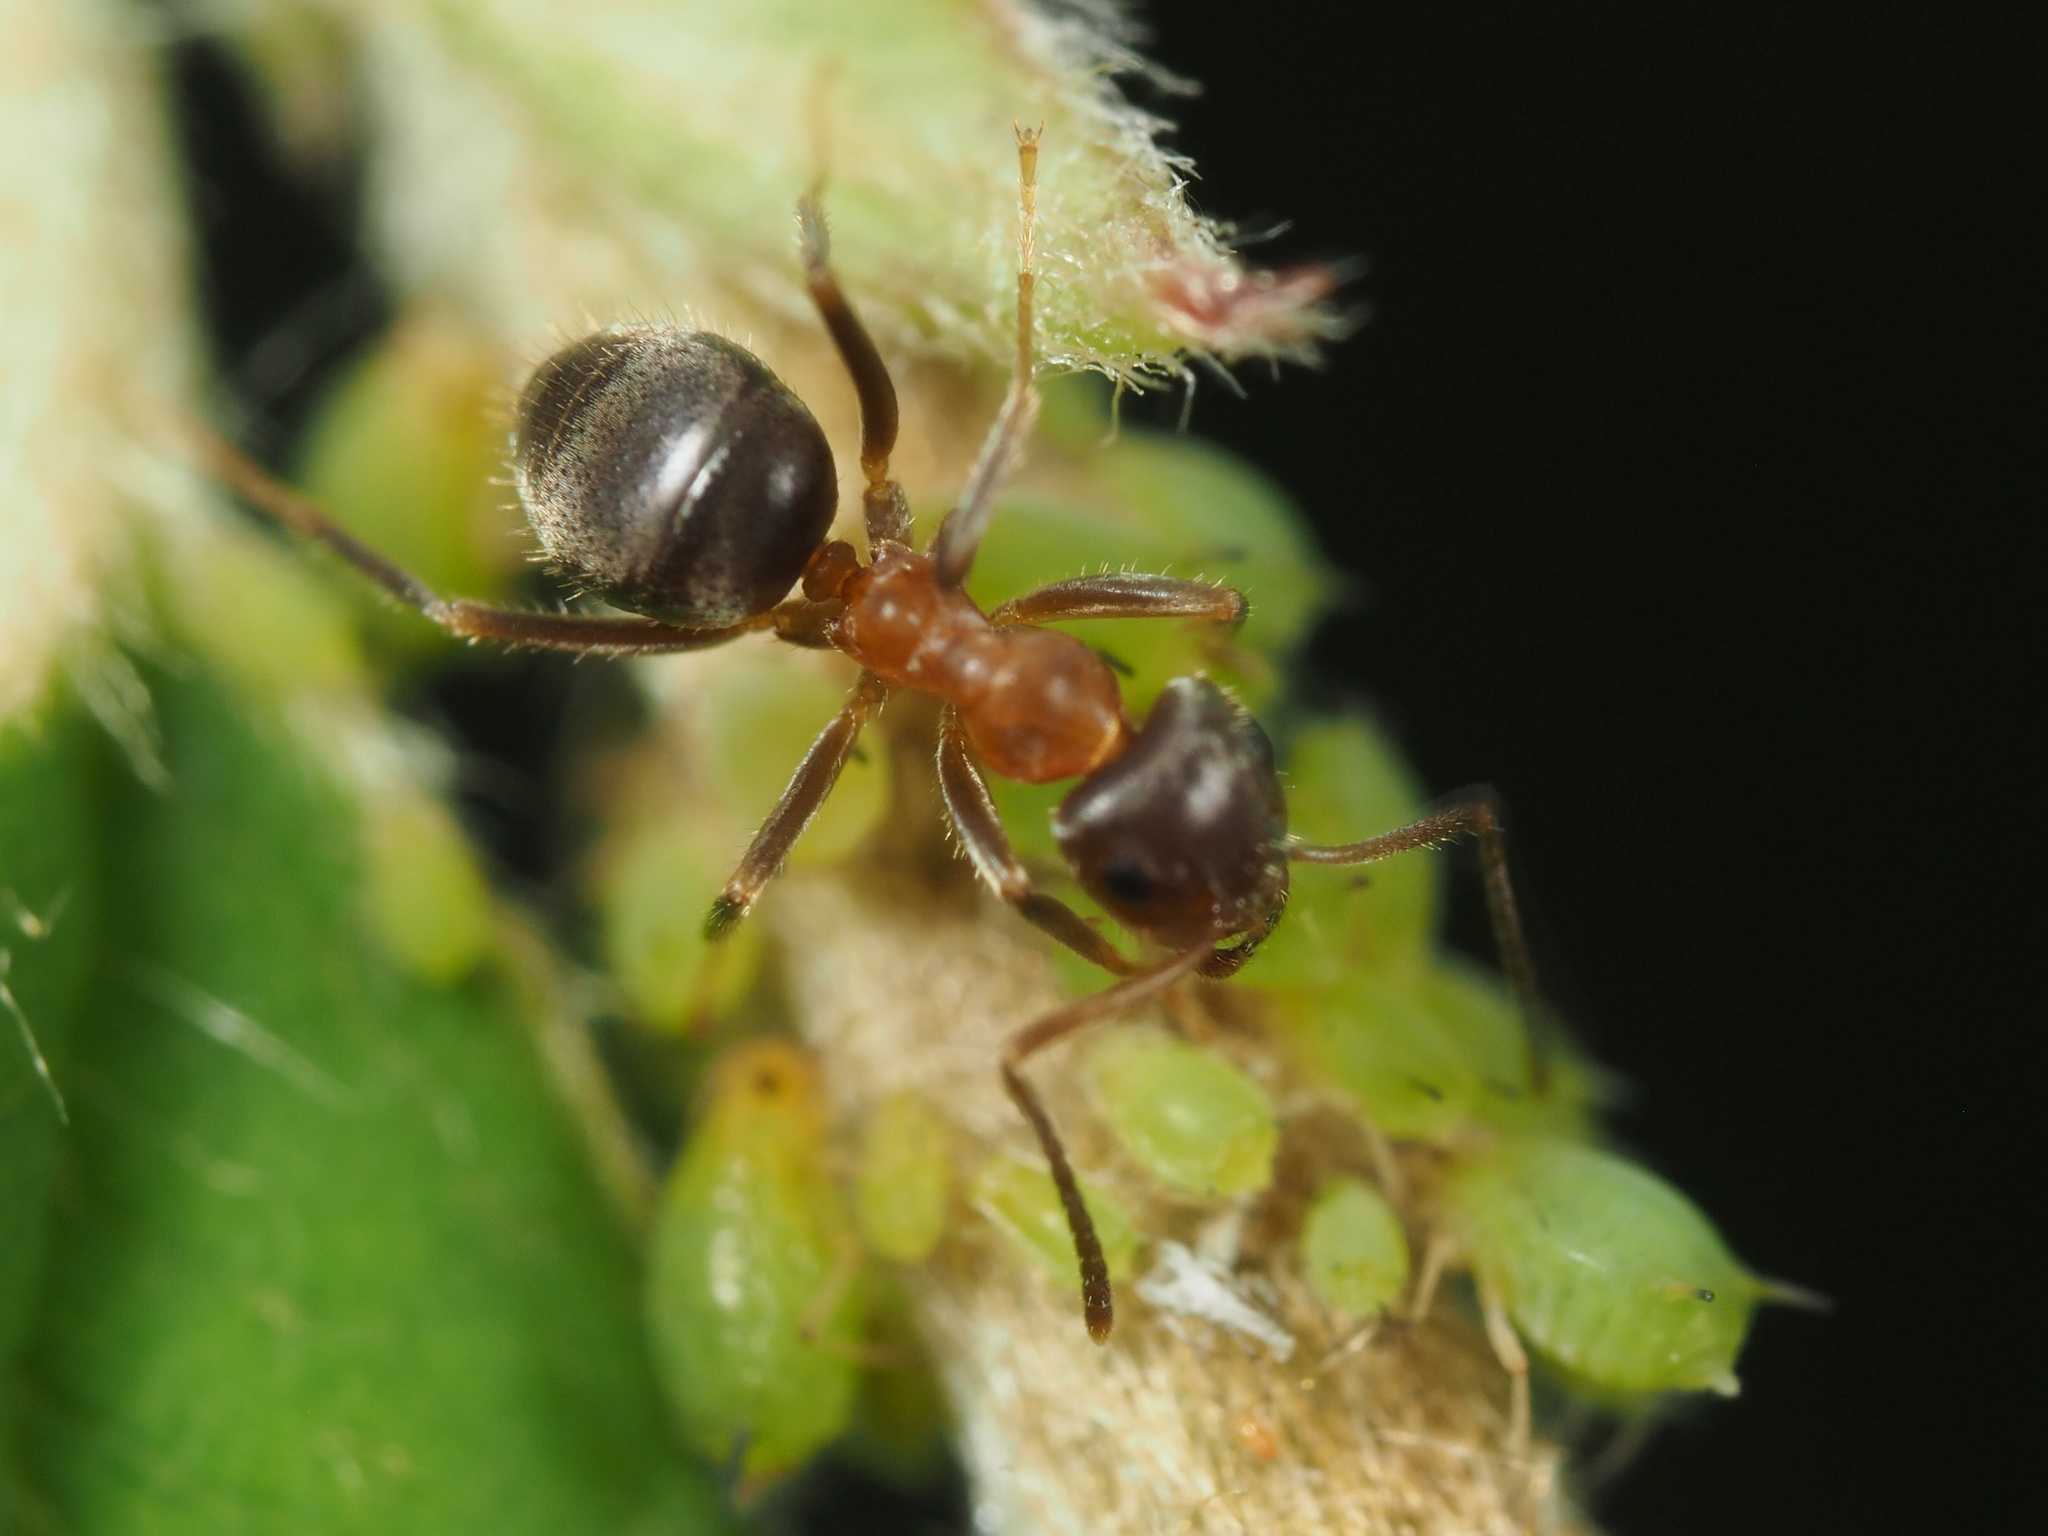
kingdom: Animalia
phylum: Arthropoda
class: Insecta
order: Hymenoptera
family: Formicidae
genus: Lasius
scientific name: Lasius emarginatus
